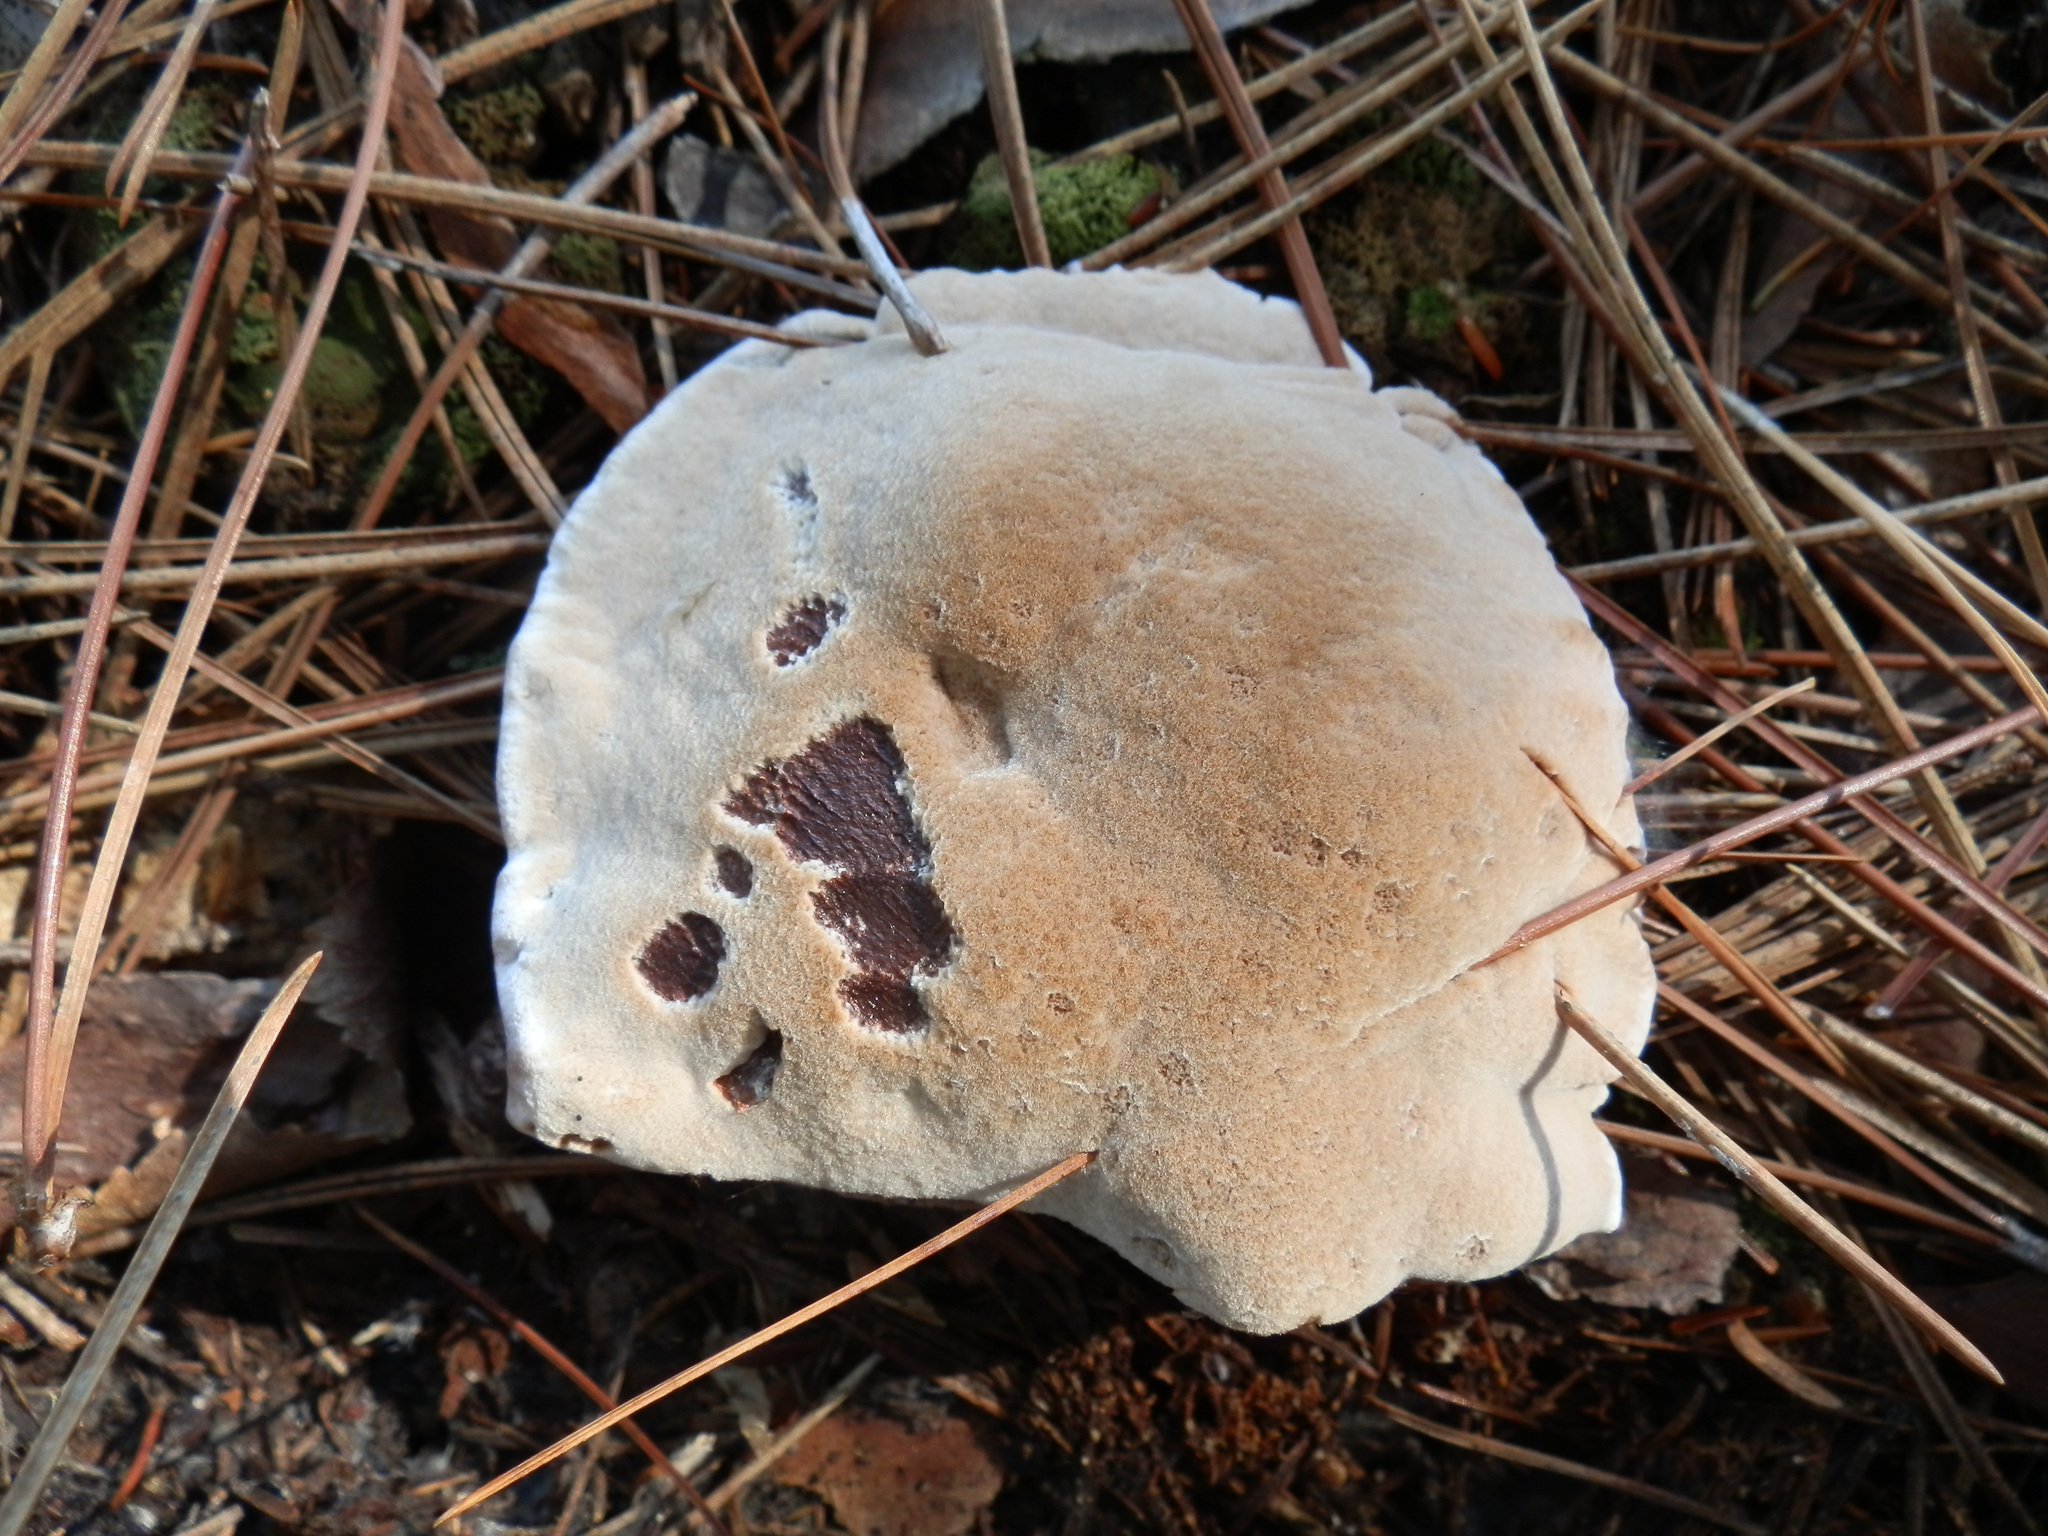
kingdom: Fungi
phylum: Basidiomycota
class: Agaricomycetes
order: Thelephorales
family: Bankeraceae
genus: Hydnellum
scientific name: Hydnellum ferrugineum
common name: Mealy tooth
